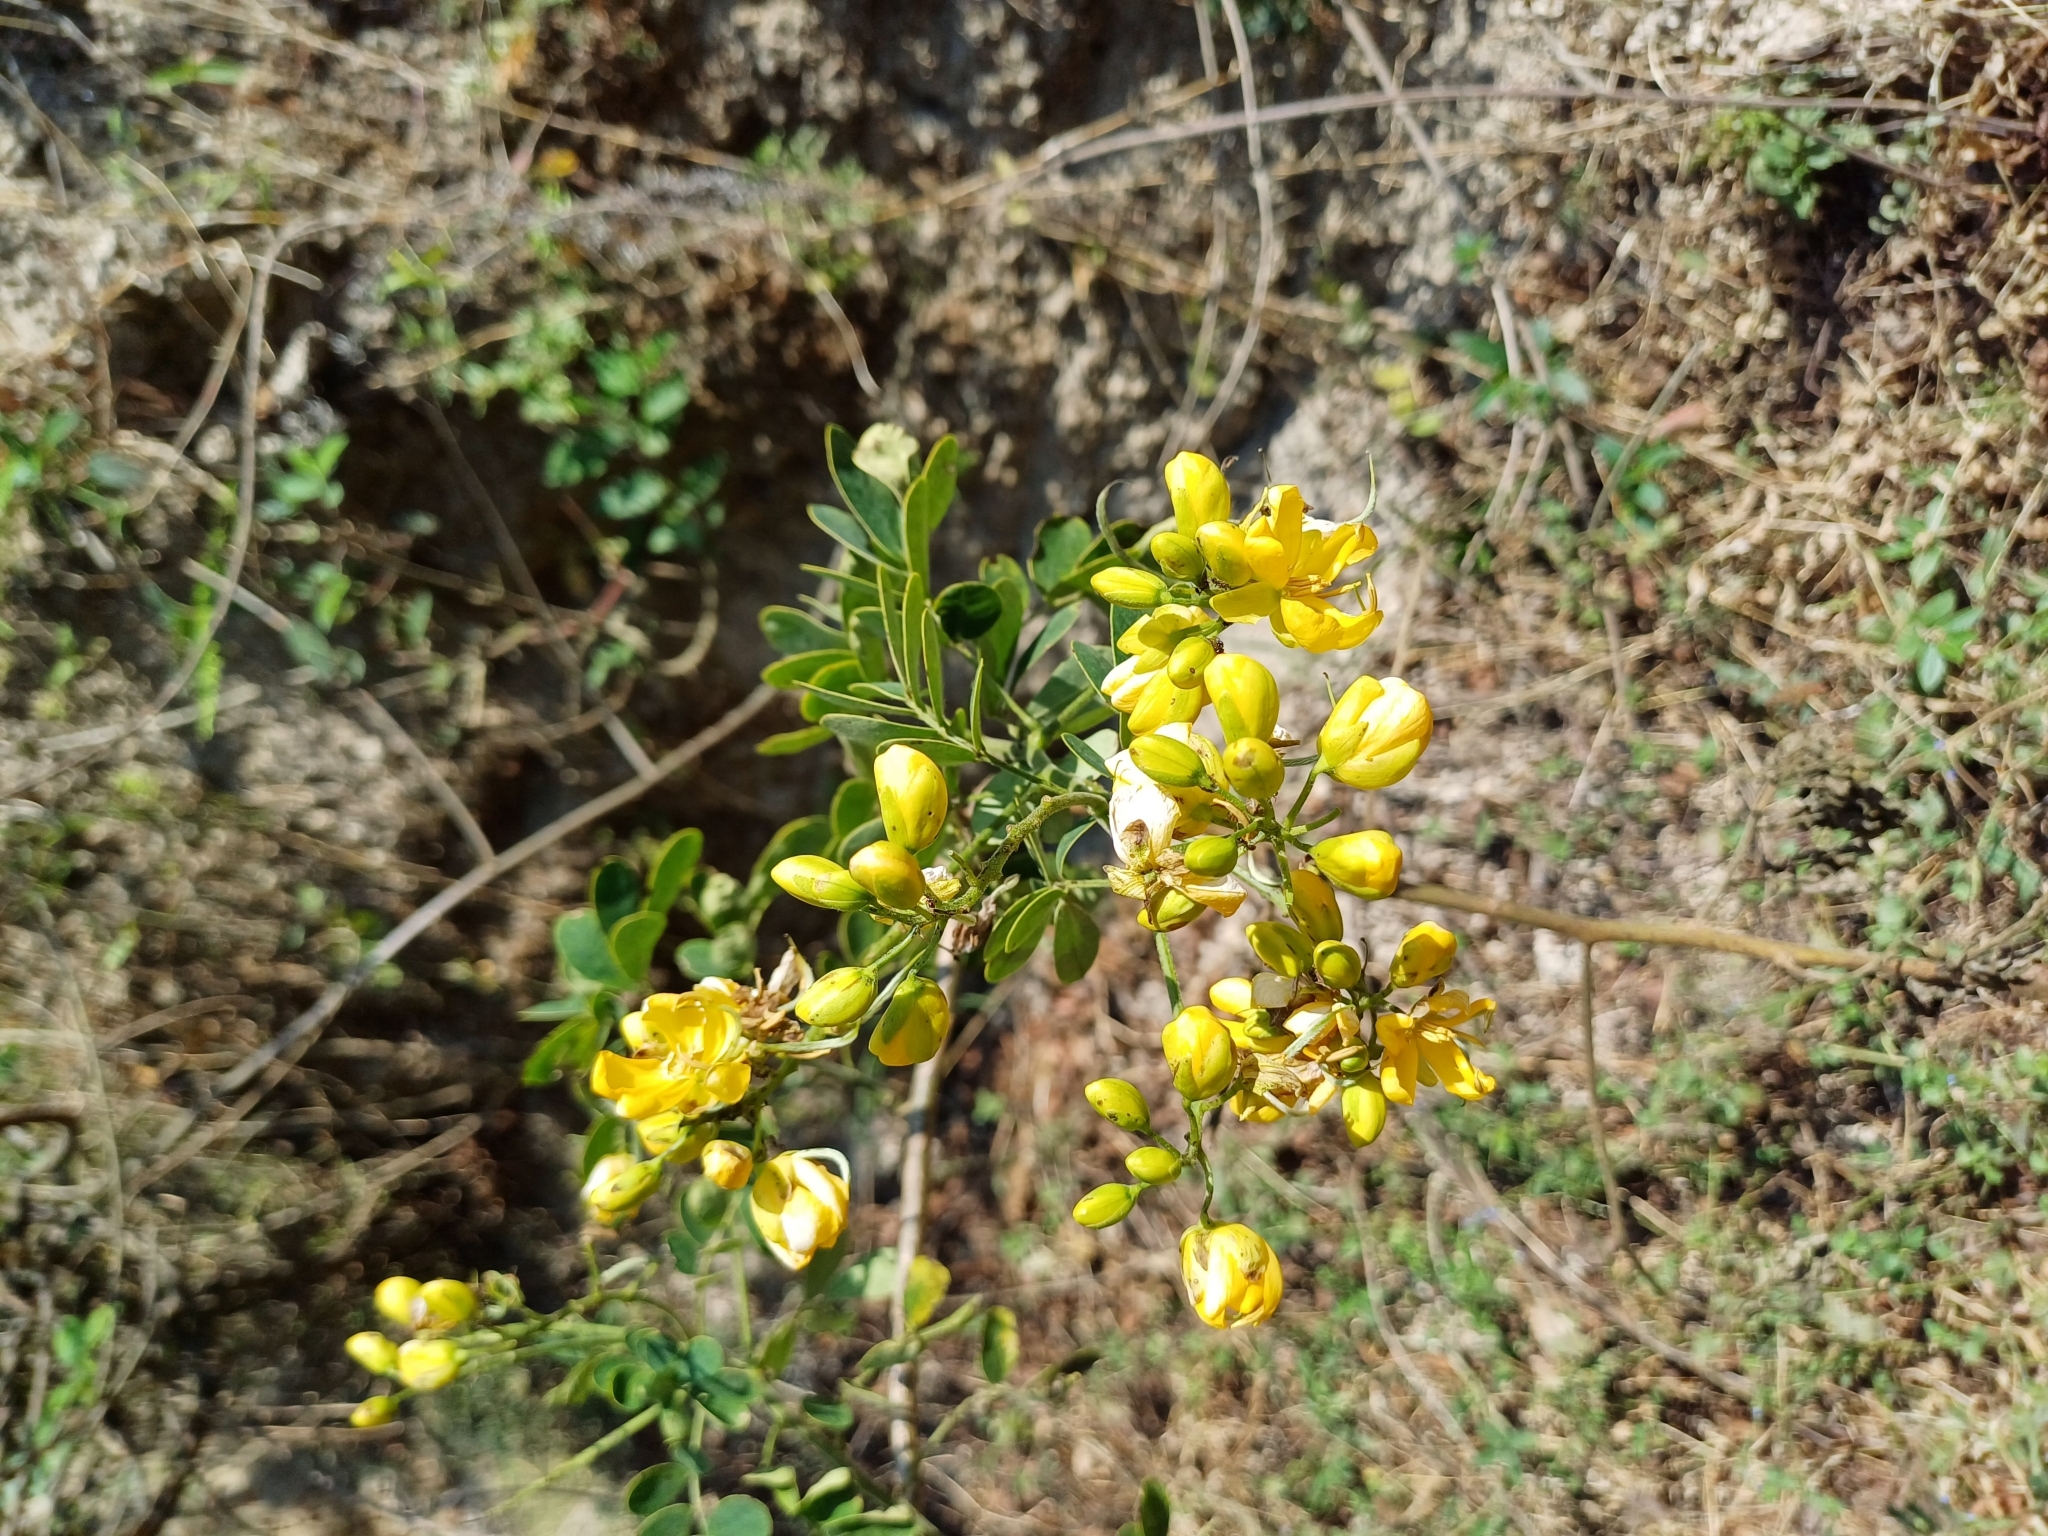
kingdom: Plantae
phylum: Tracheophyta
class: Magnoliopsida
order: Fabales
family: Fabaceae
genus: Senna
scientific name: Senna pendula
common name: Easter cassia
